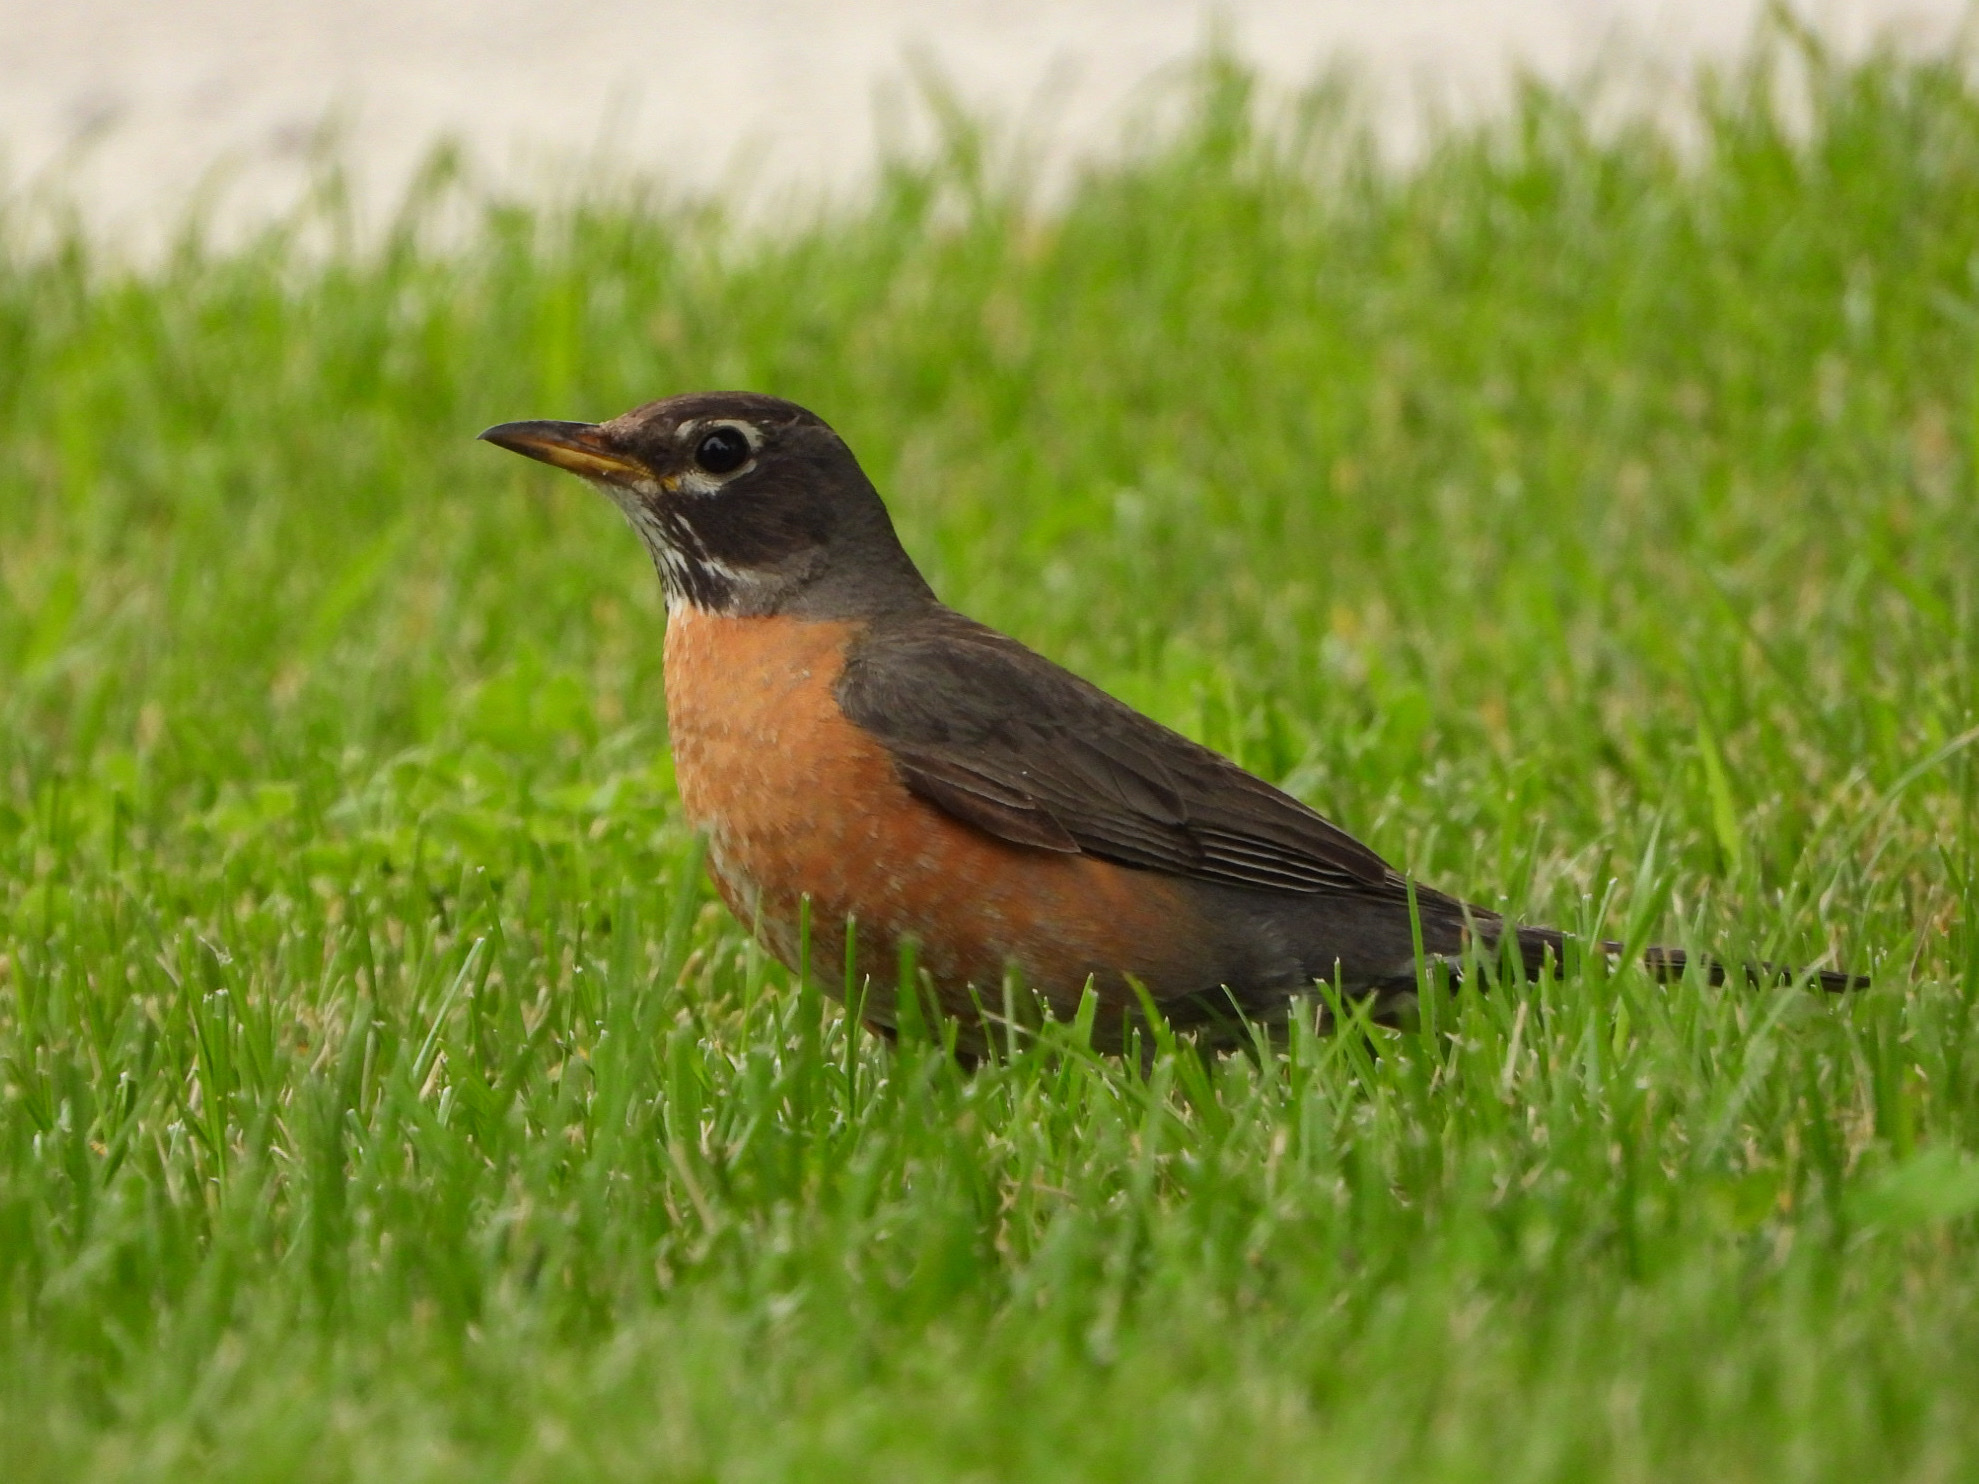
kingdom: Animalia
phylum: Chordata
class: Aves
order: Passeriformes
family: Turdidae
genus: Turdus
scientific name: Turdus migratorius
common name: American robin
